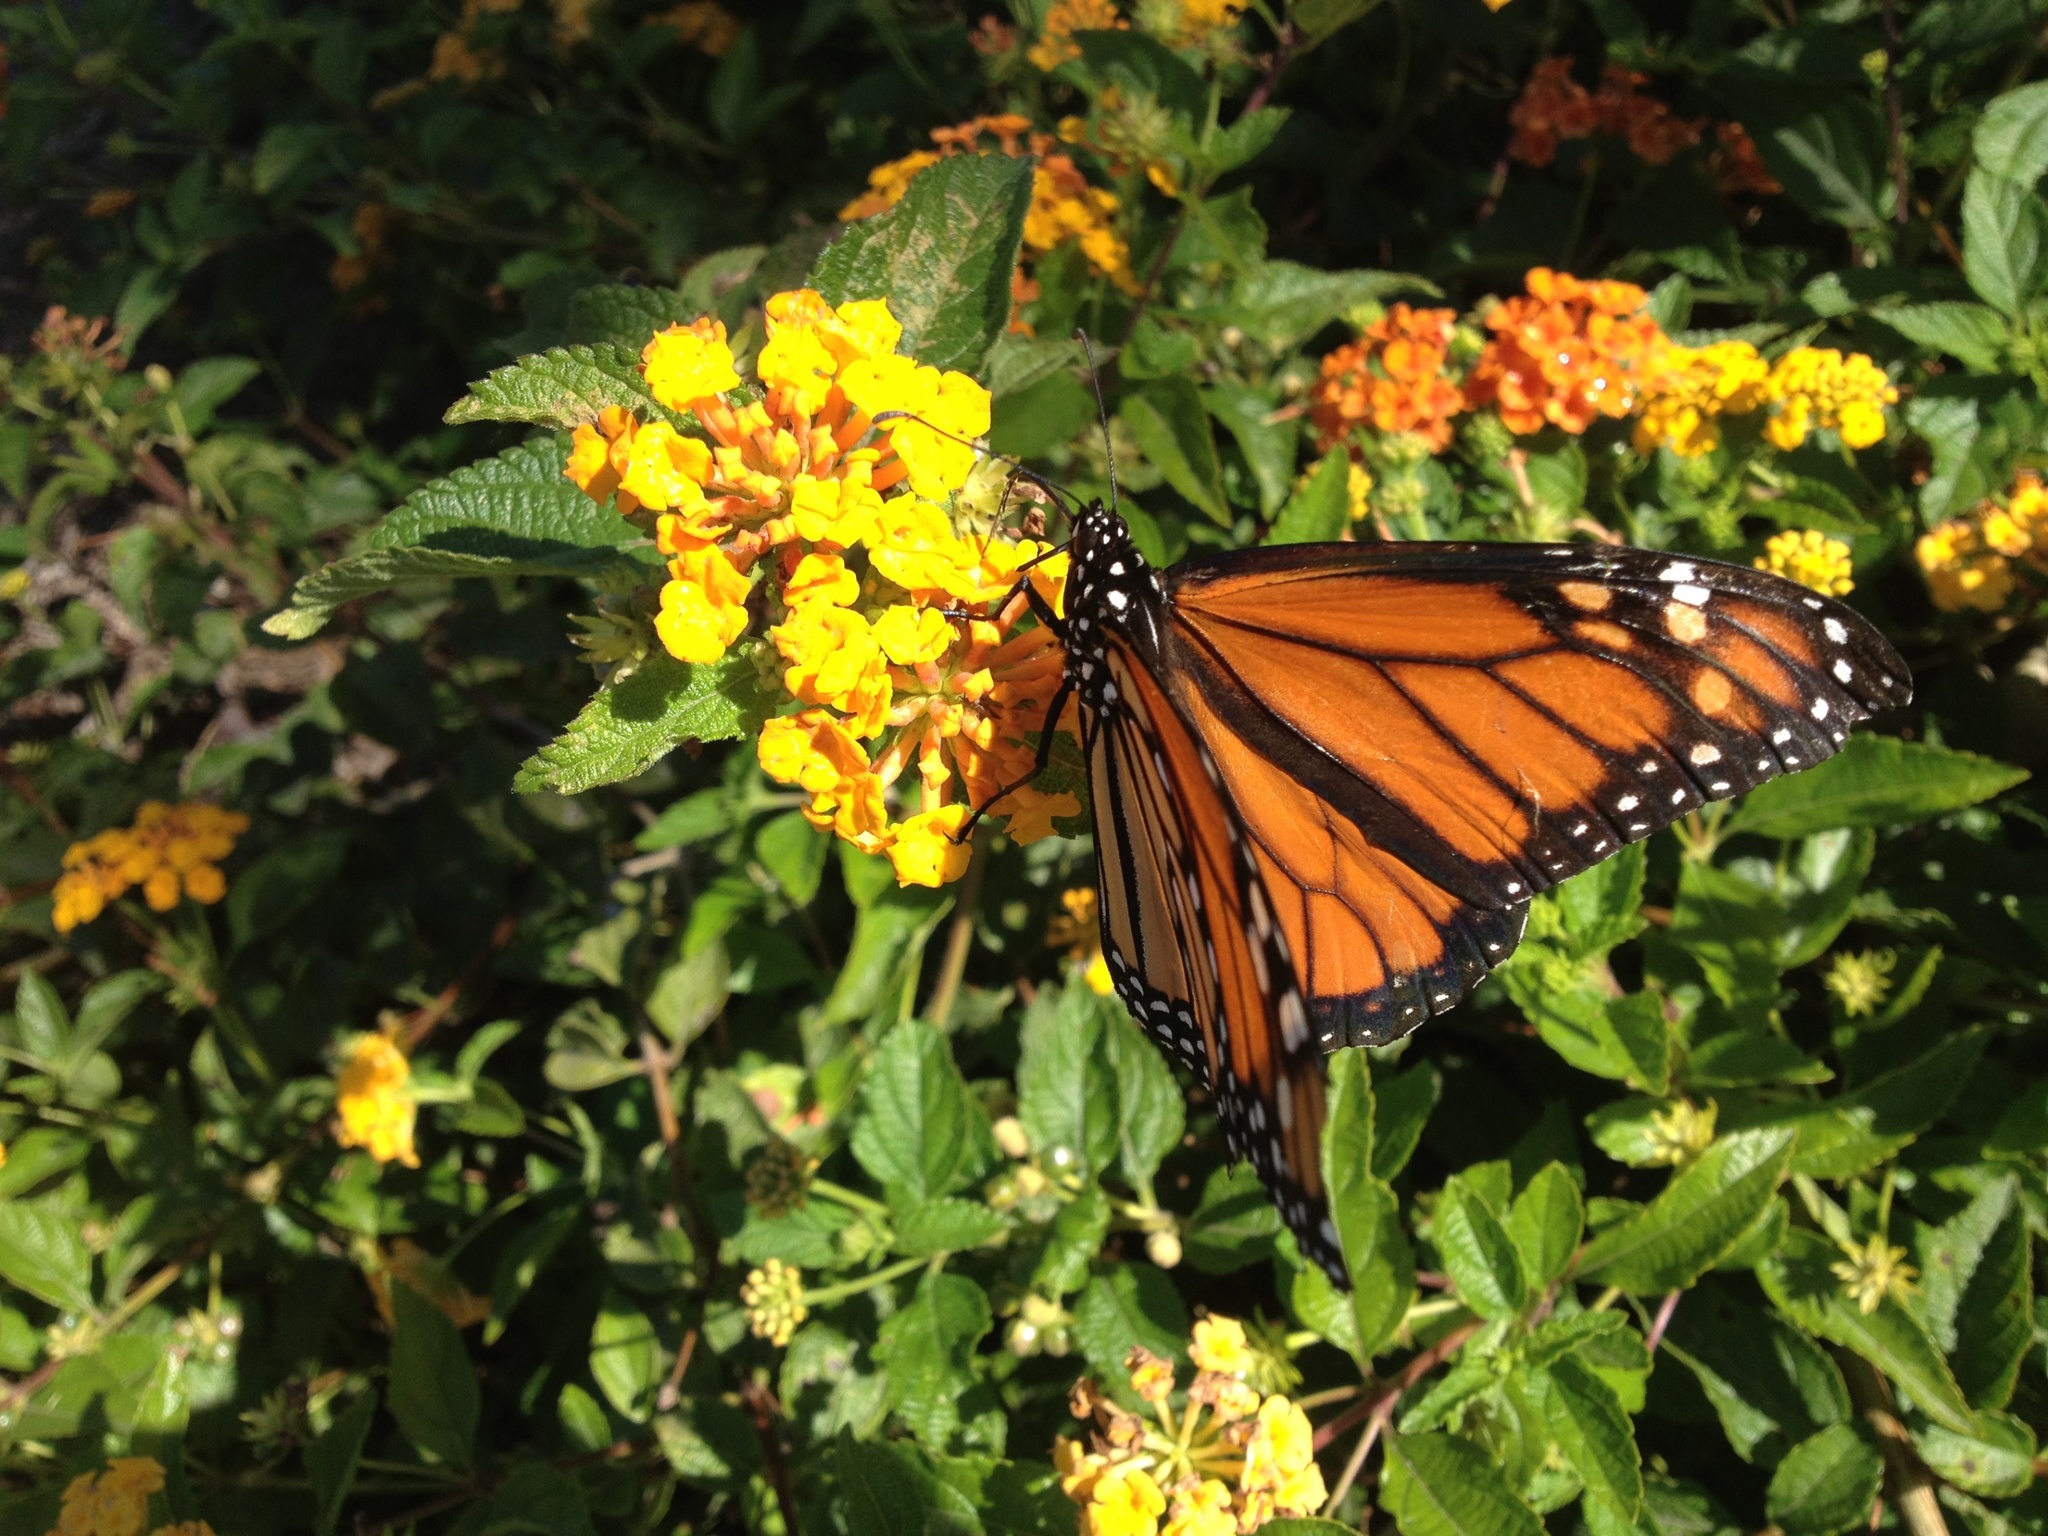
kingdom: Animalia
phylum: Arthropoda
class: Insecta
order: Lepidoptera
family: Nymphalidae
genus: Danaus
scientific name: Danaus plexippus
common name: Monarch
